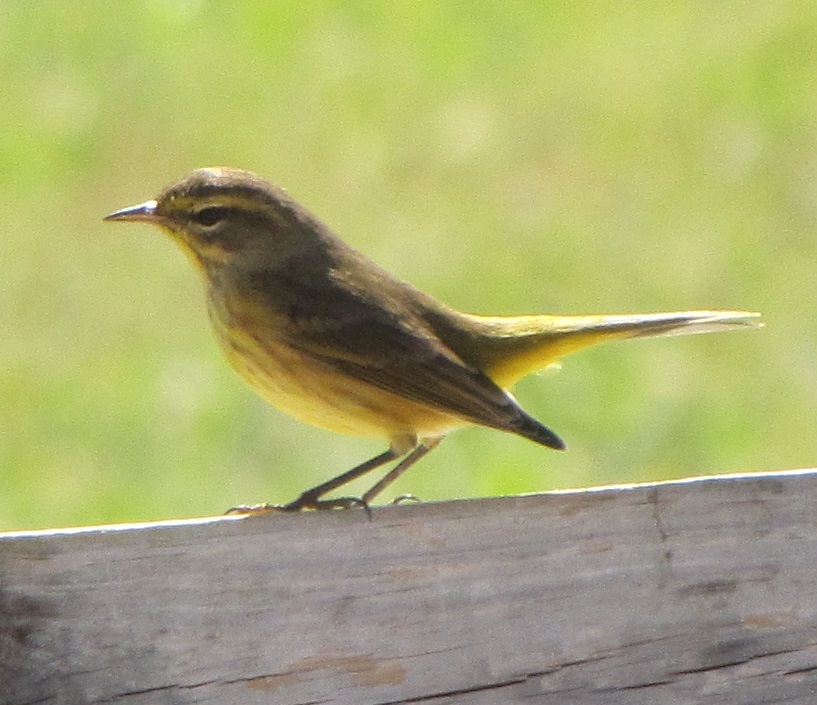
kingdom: Animalia
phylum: Chordata
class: Aves
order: Passeriformes
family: Parulidae
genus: Setophaga
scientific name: Setophaga palmarum
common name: Palm warbler
